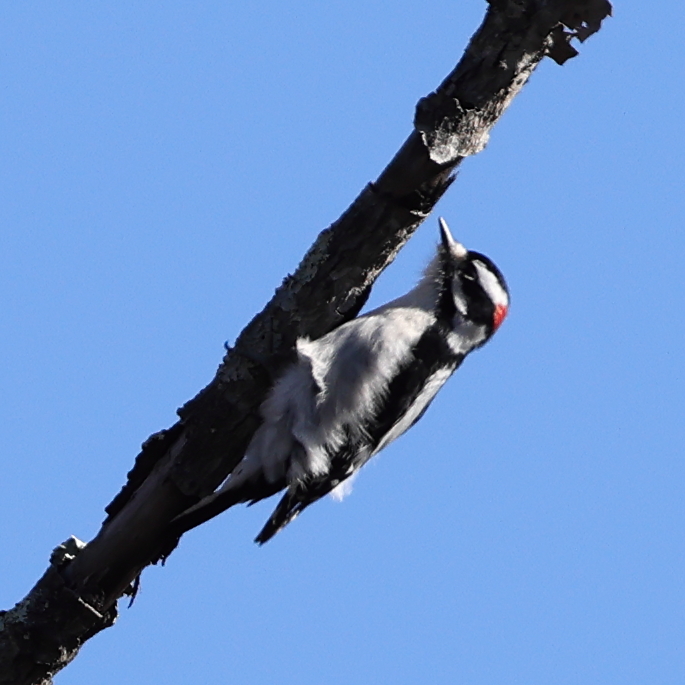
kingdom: Animalia
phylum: Chordata
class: Aves
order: Piciformes
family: Picidae
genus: Dryobates
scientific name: Dryobates pubescens
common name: Downy woodpecker
